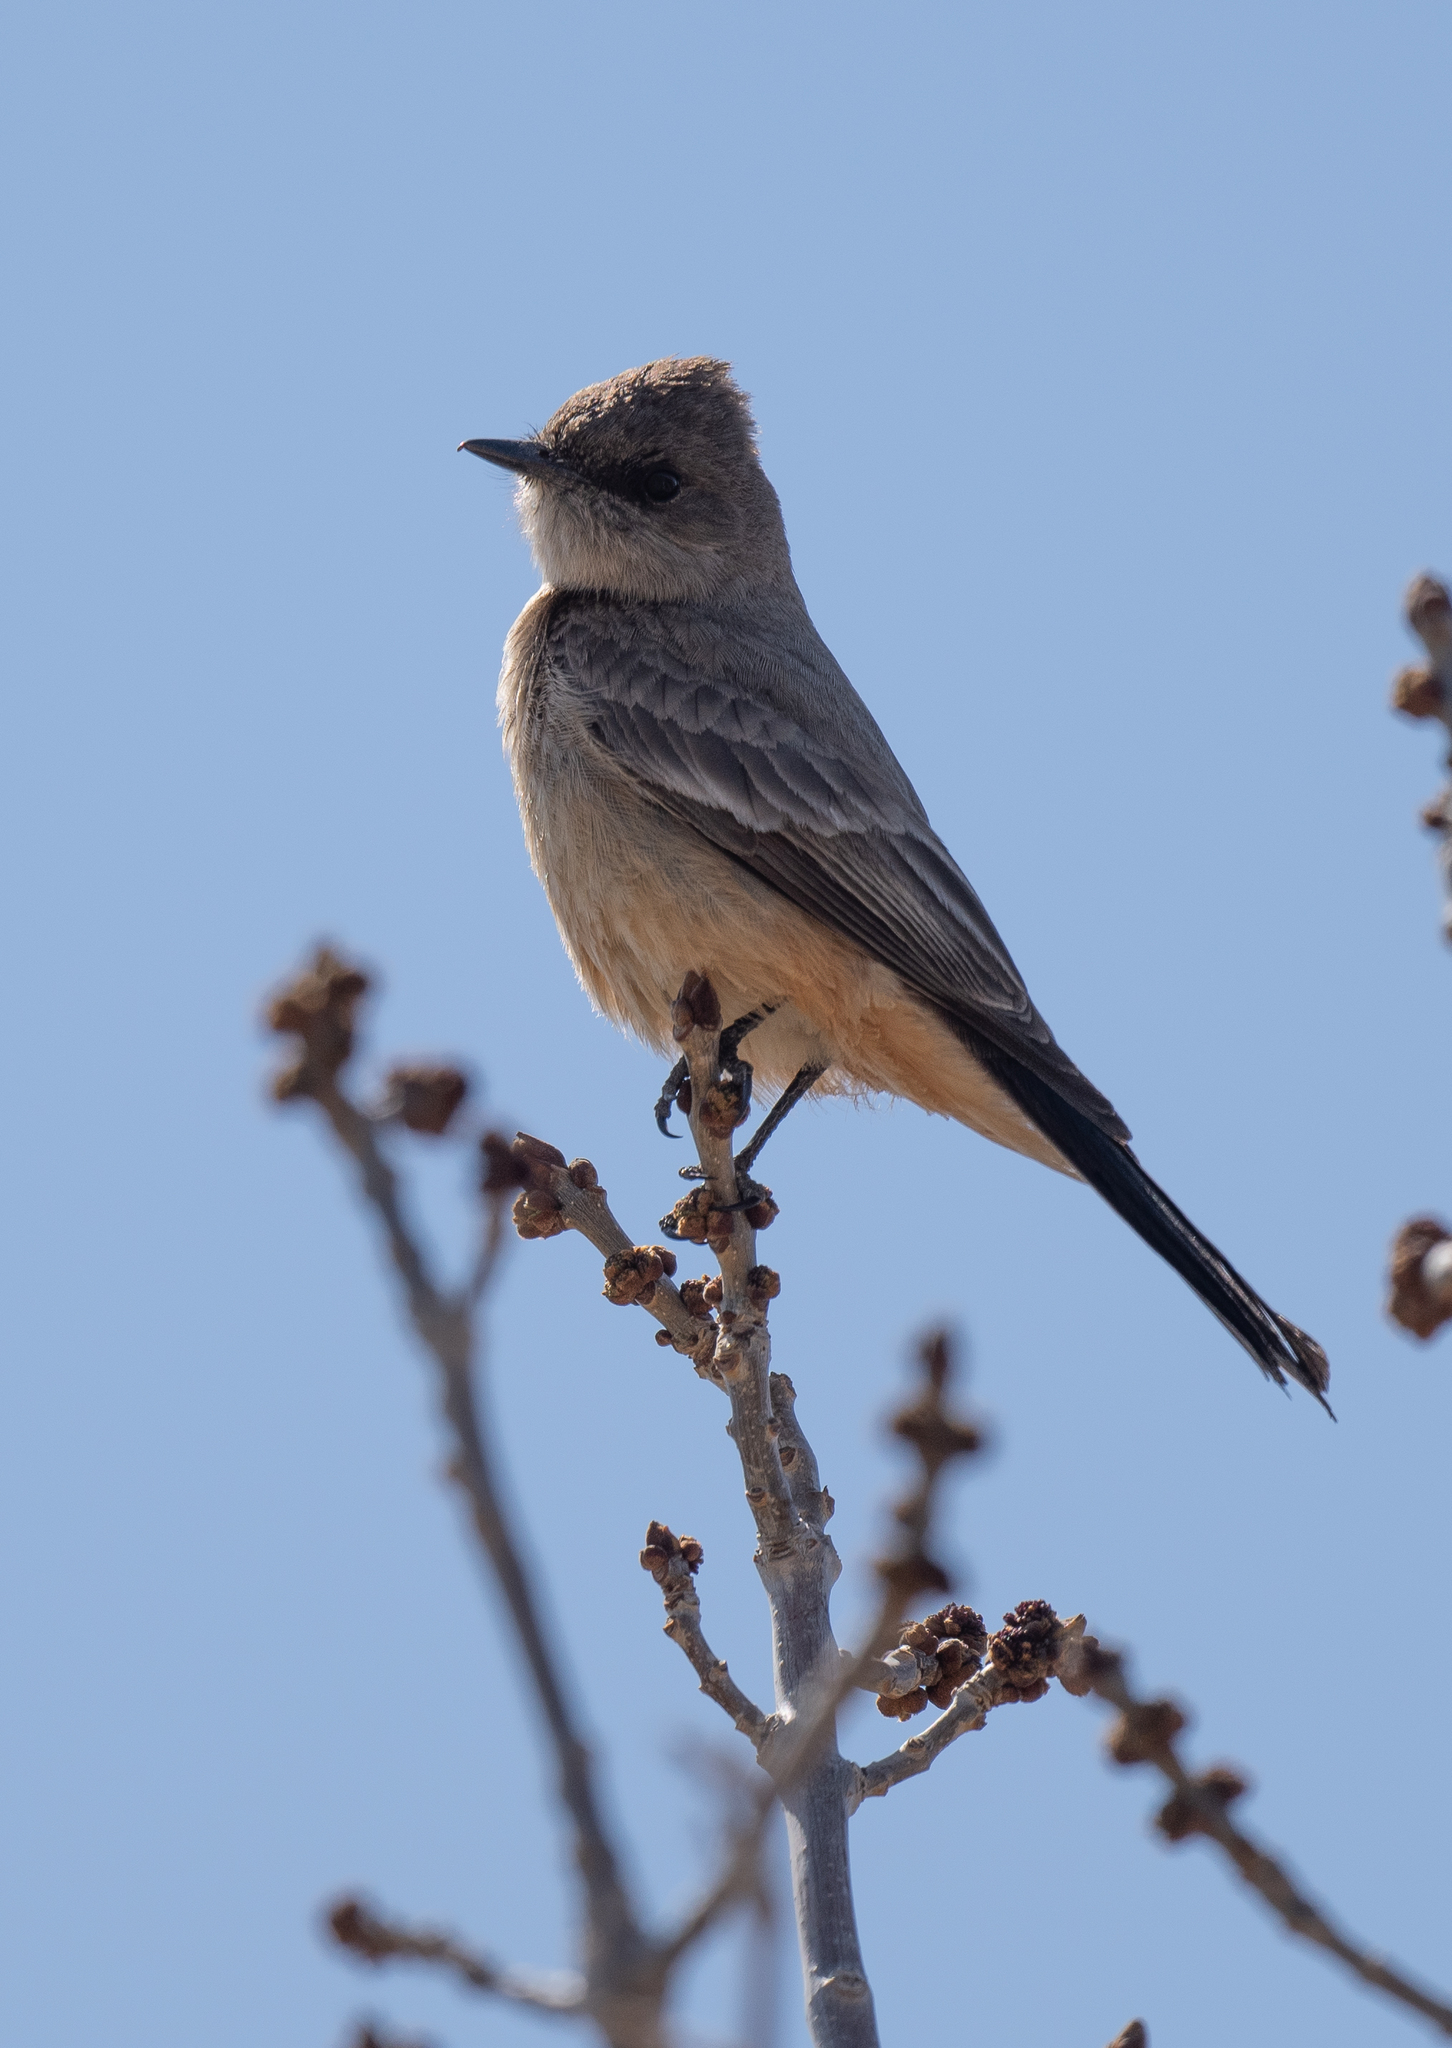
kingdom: Animalia
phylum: Chordata
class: Aves
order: Passeriformes
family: Tyrannidae
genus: Sayornis
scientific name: Sayornis saya
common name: Say's phoebe
